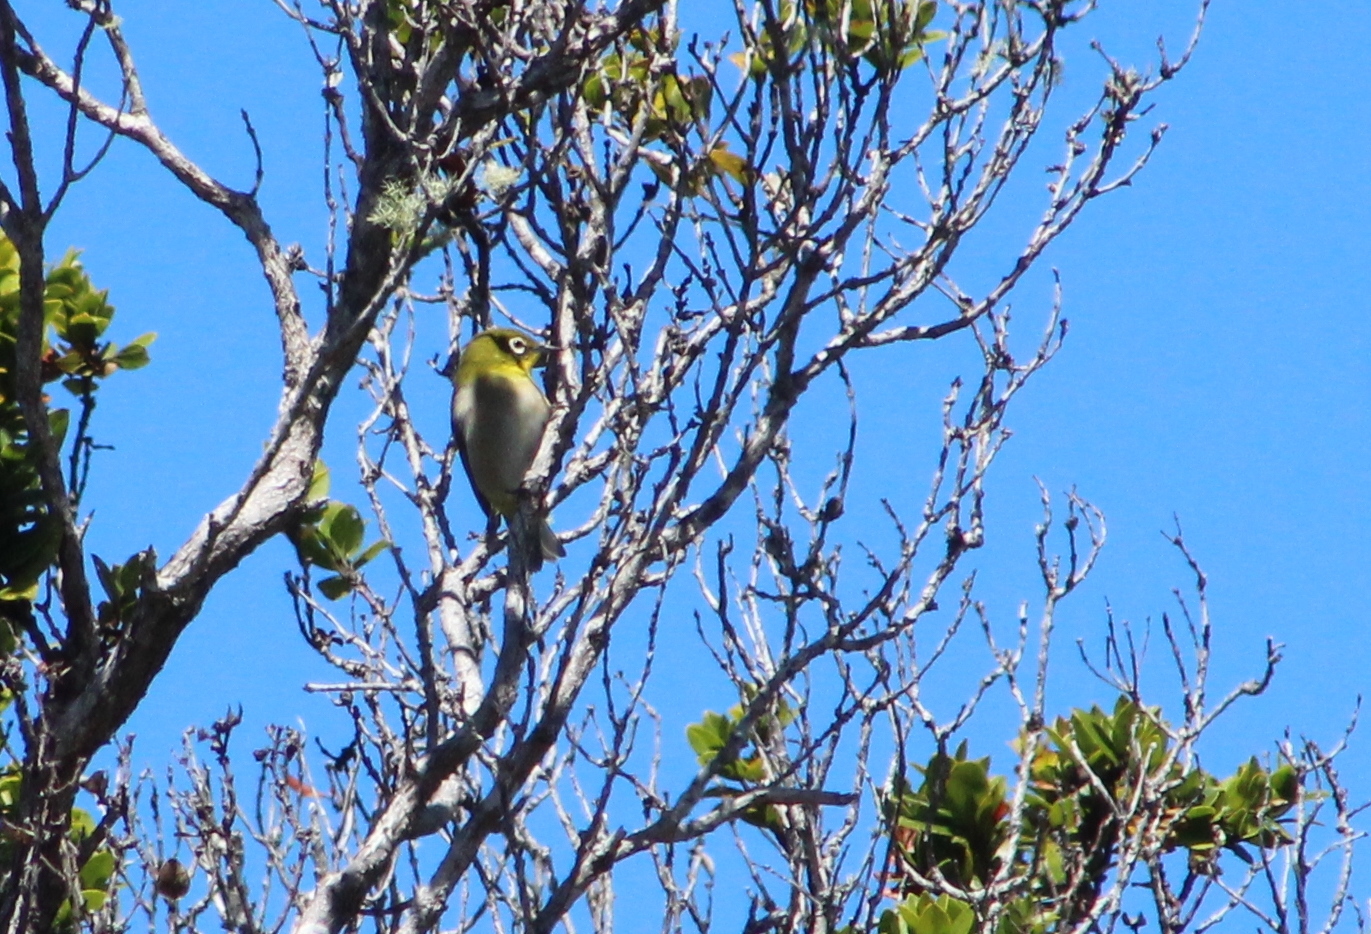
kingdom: Animalia
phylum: Chordata
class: Aves
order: Passeriformes
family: Zosteropidae
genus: Zosterops
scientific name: Zosterops japonicus
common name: Japanese white-eye
